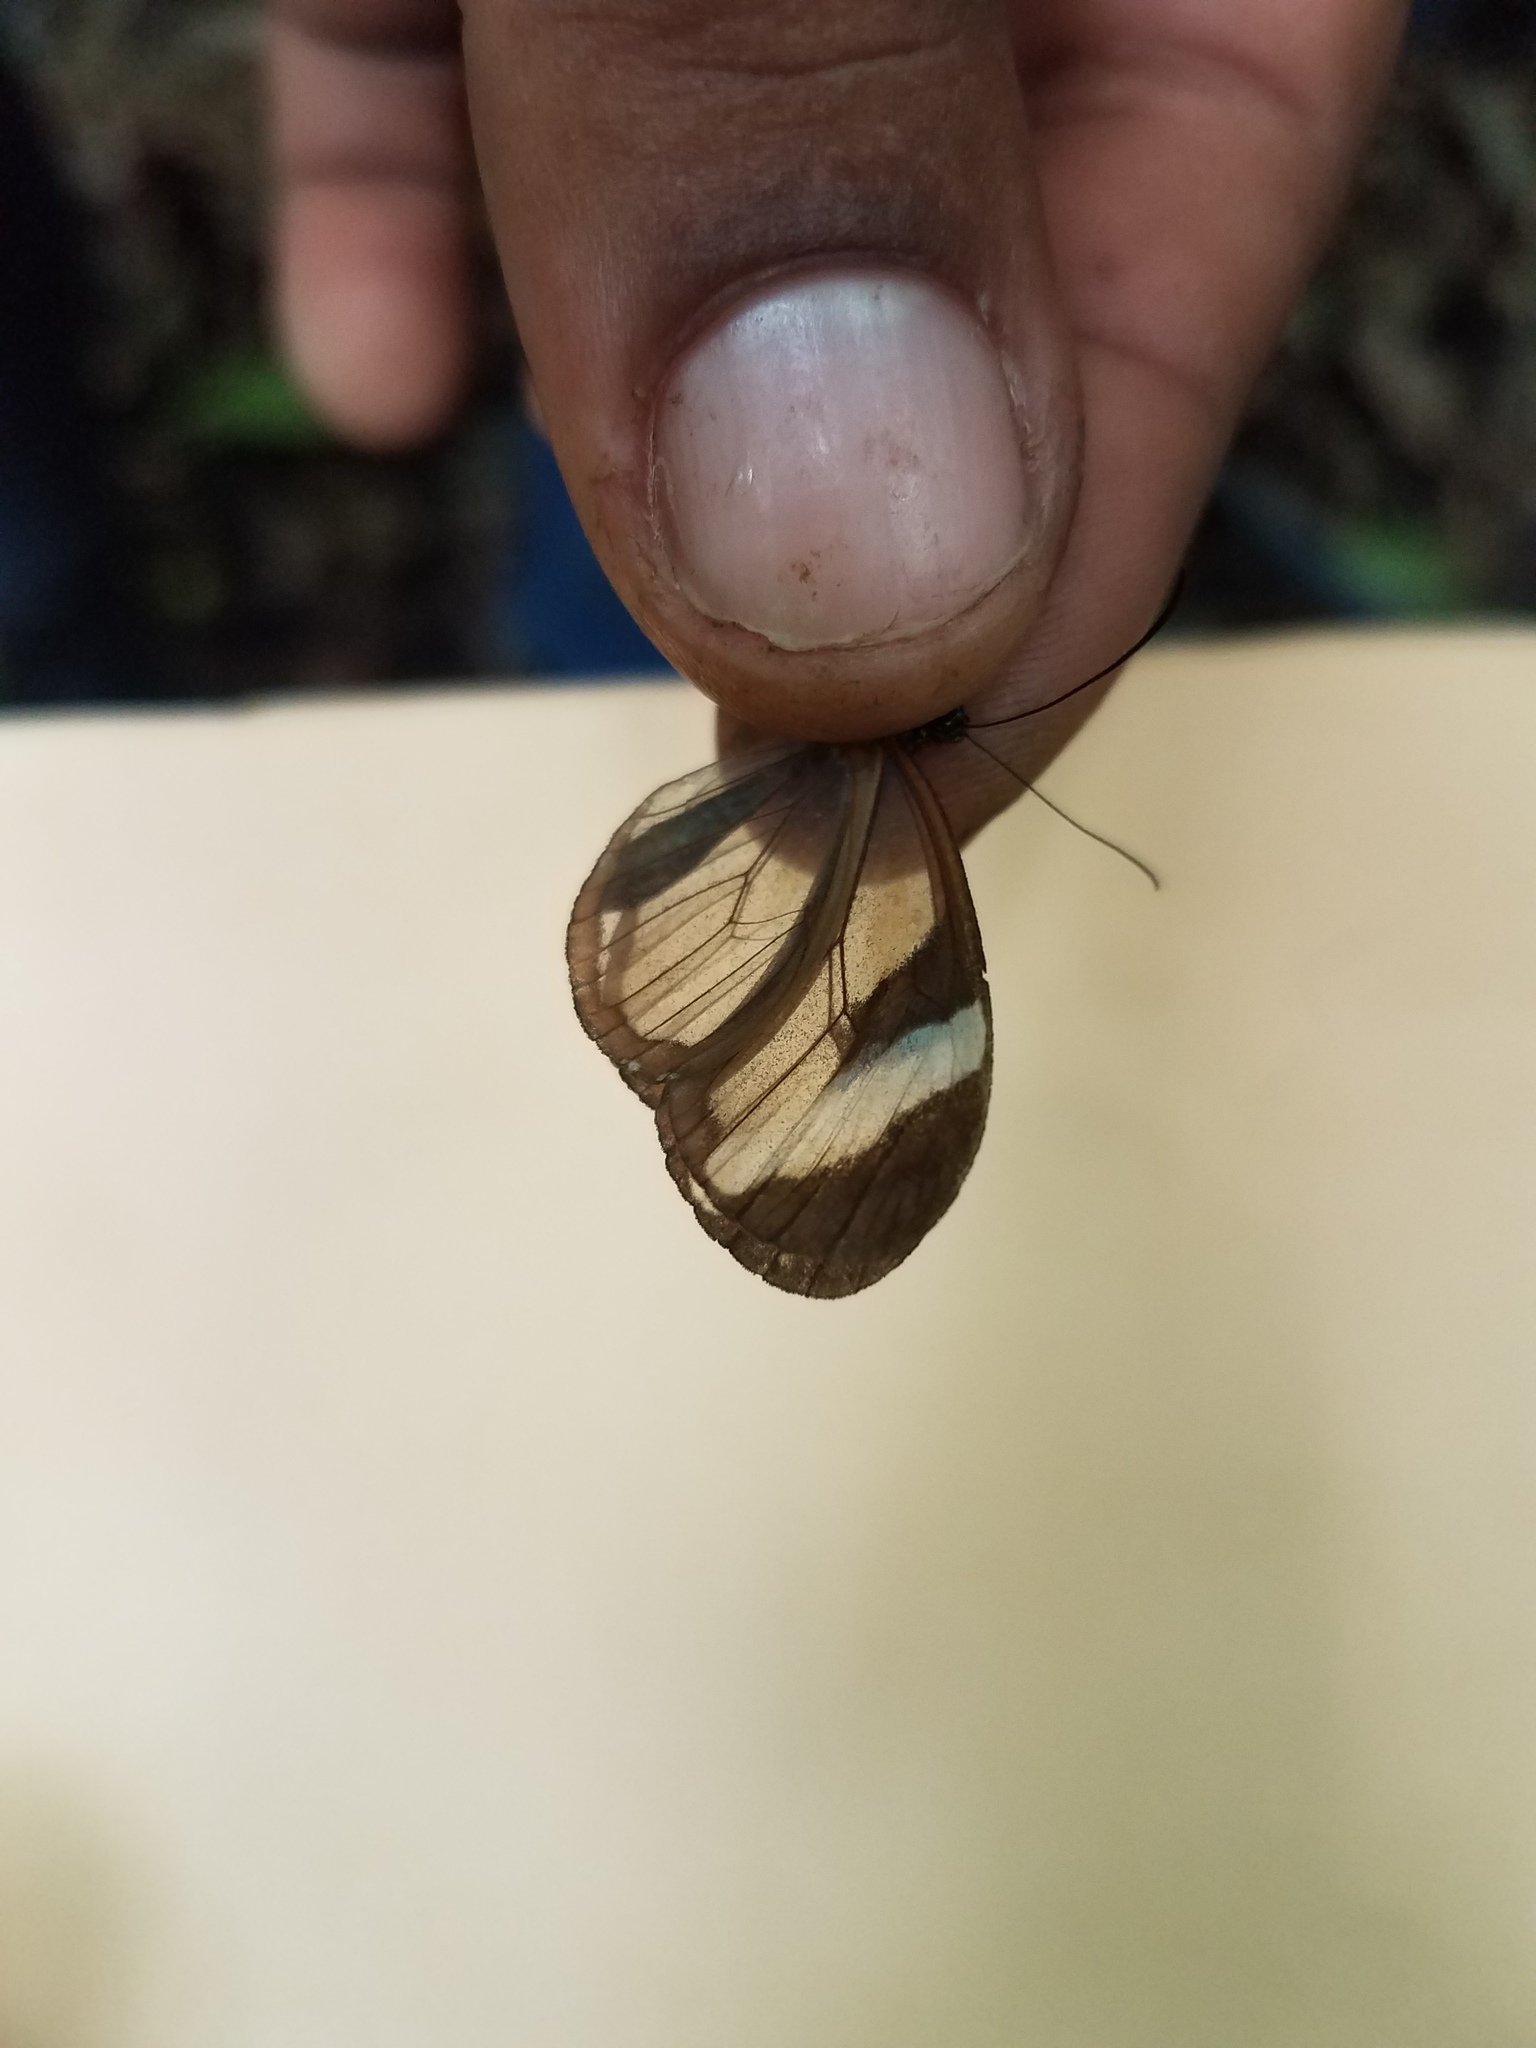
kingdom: Animalia
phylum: Arthropoda
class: Insecta
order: Lepidoptera
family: Nymphalidae
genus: Oleria
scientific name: Oleria paula
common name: Paula's clearwing
